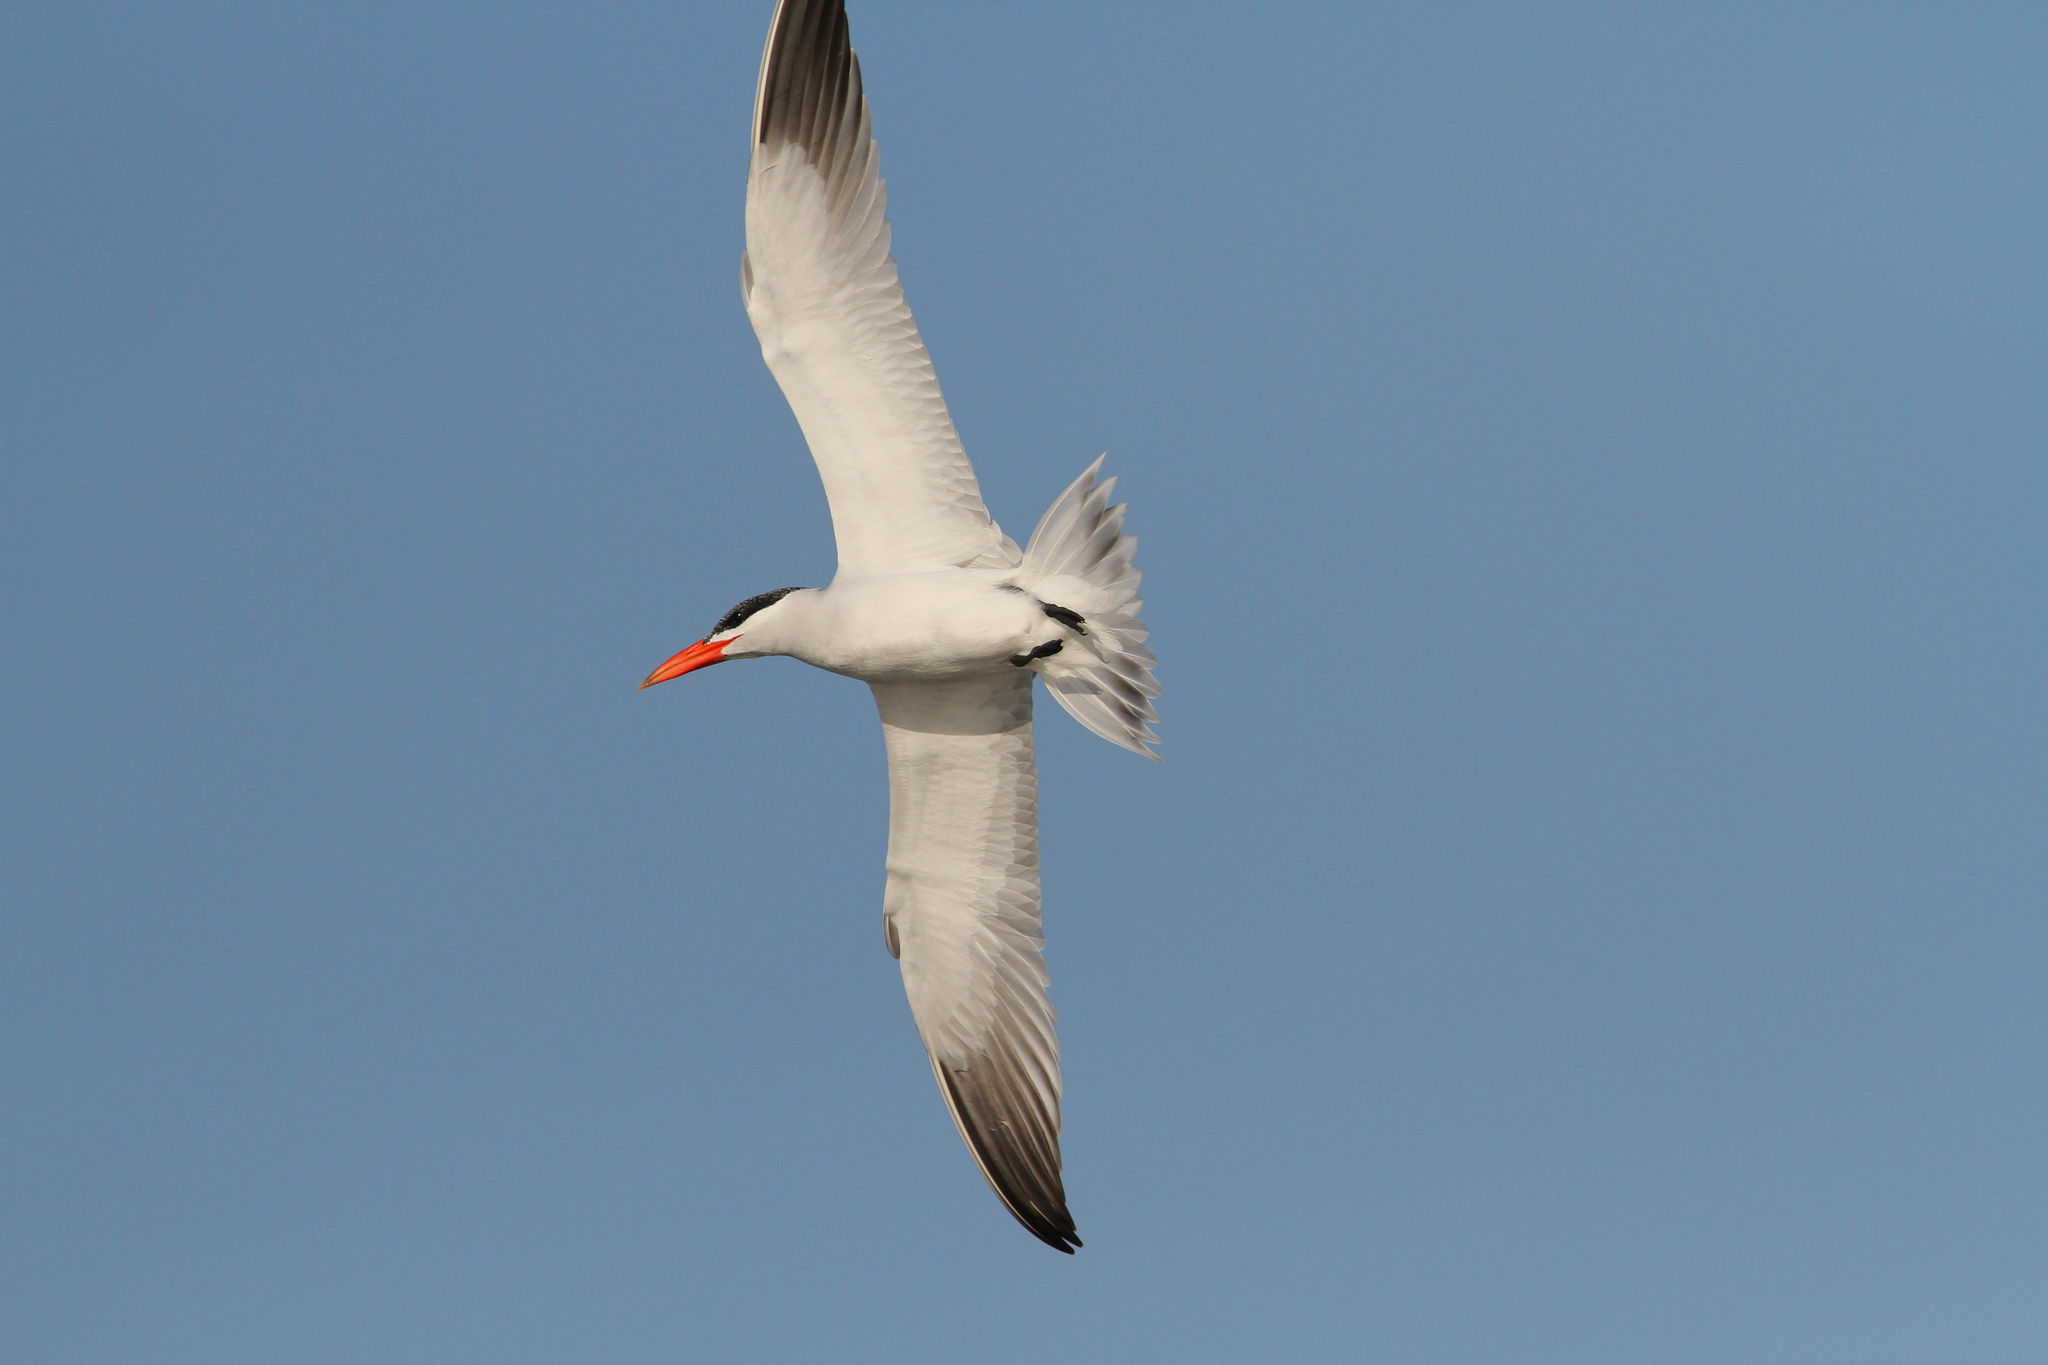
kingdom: Animalia
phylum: Chordata
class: Aves
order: Charadriiformes
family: Laridae
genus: Hydroprogne
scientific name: Hydroprogne caspia
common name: Caspian tern
